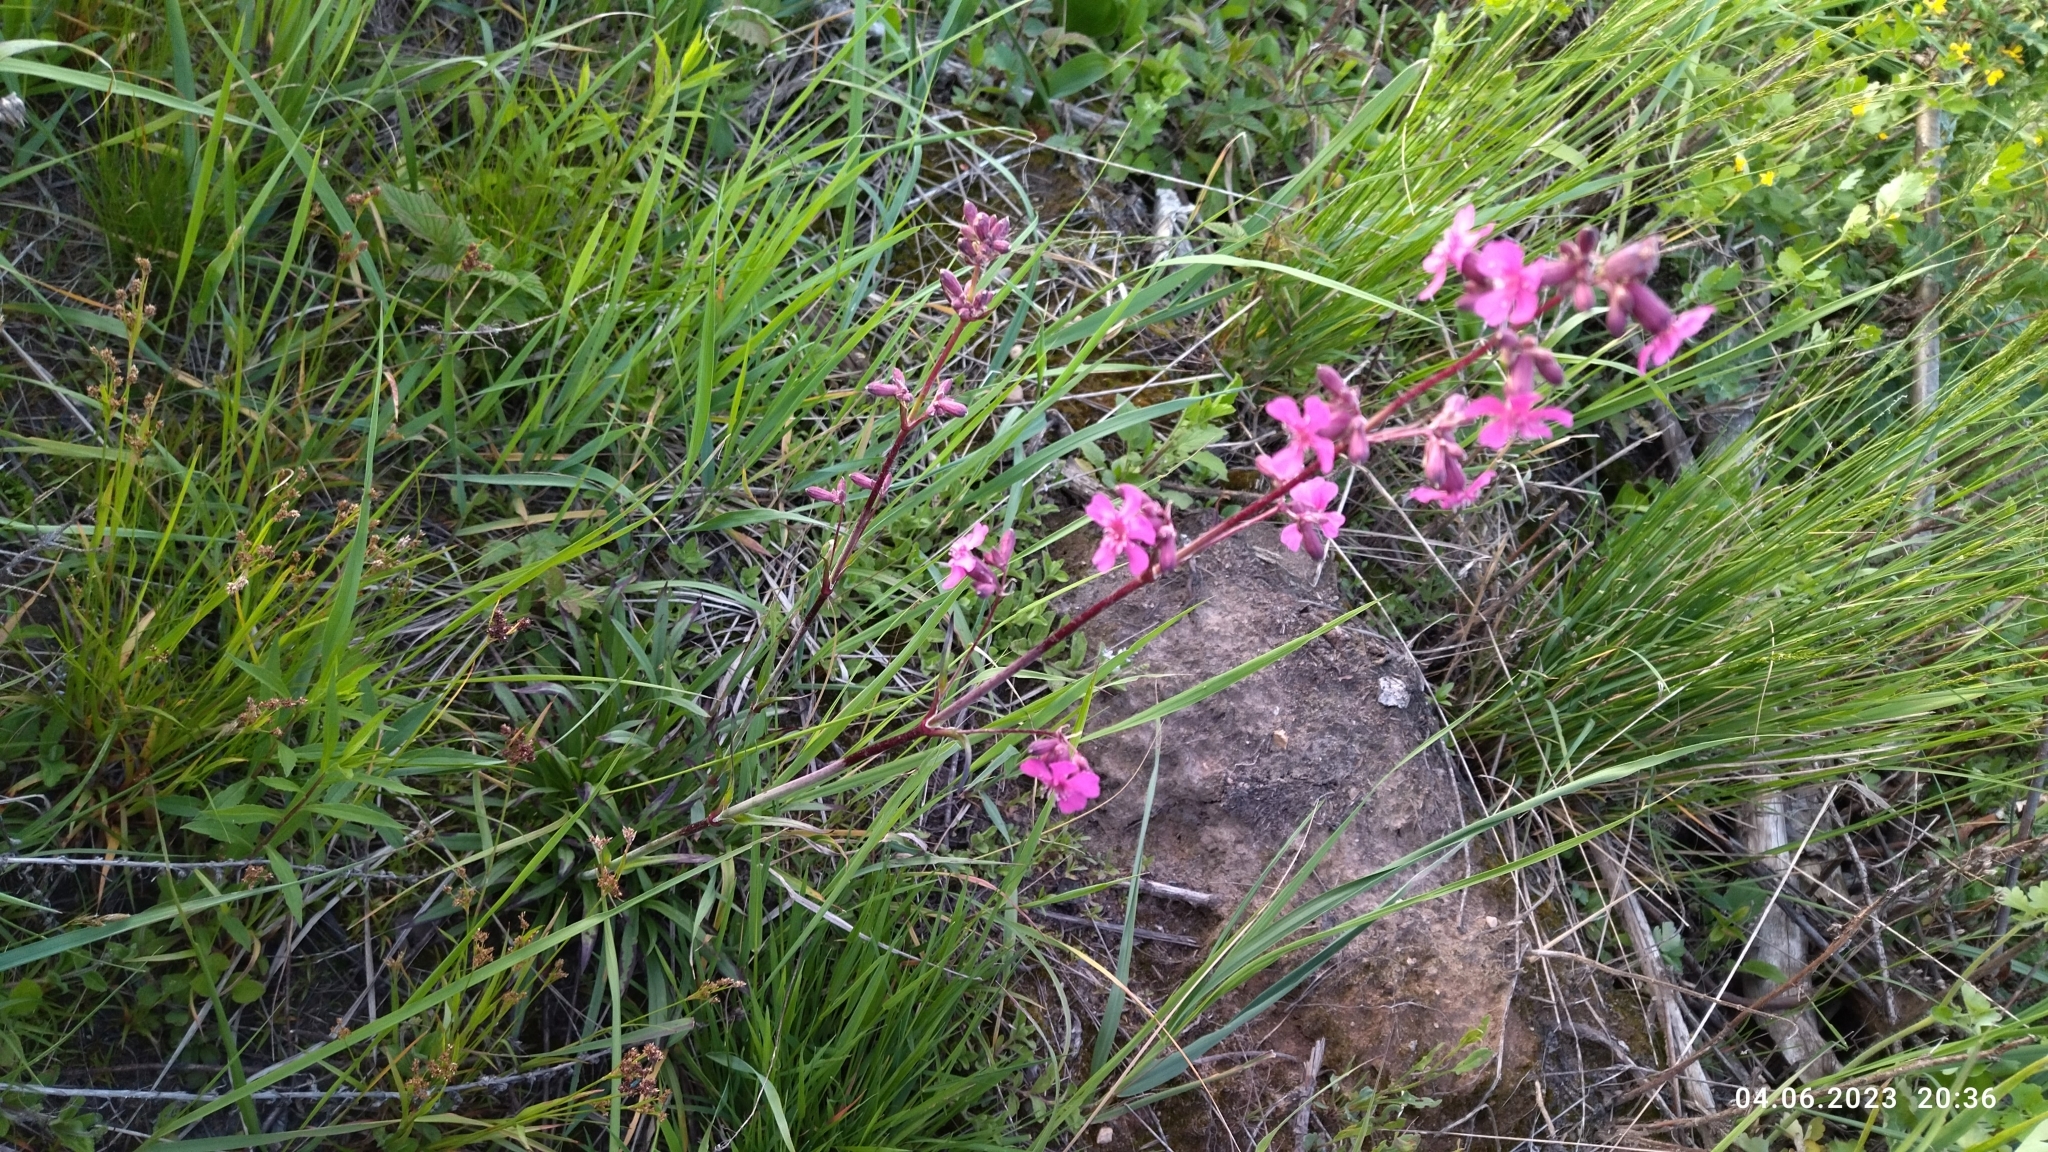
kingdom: Plantae
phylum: Tracheophyta
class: Magnoliopsida
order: Caryophyllales
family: Caryophyllaceae
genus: Viscaria
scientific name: Viscaria vulgaris
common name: Clammy campion
